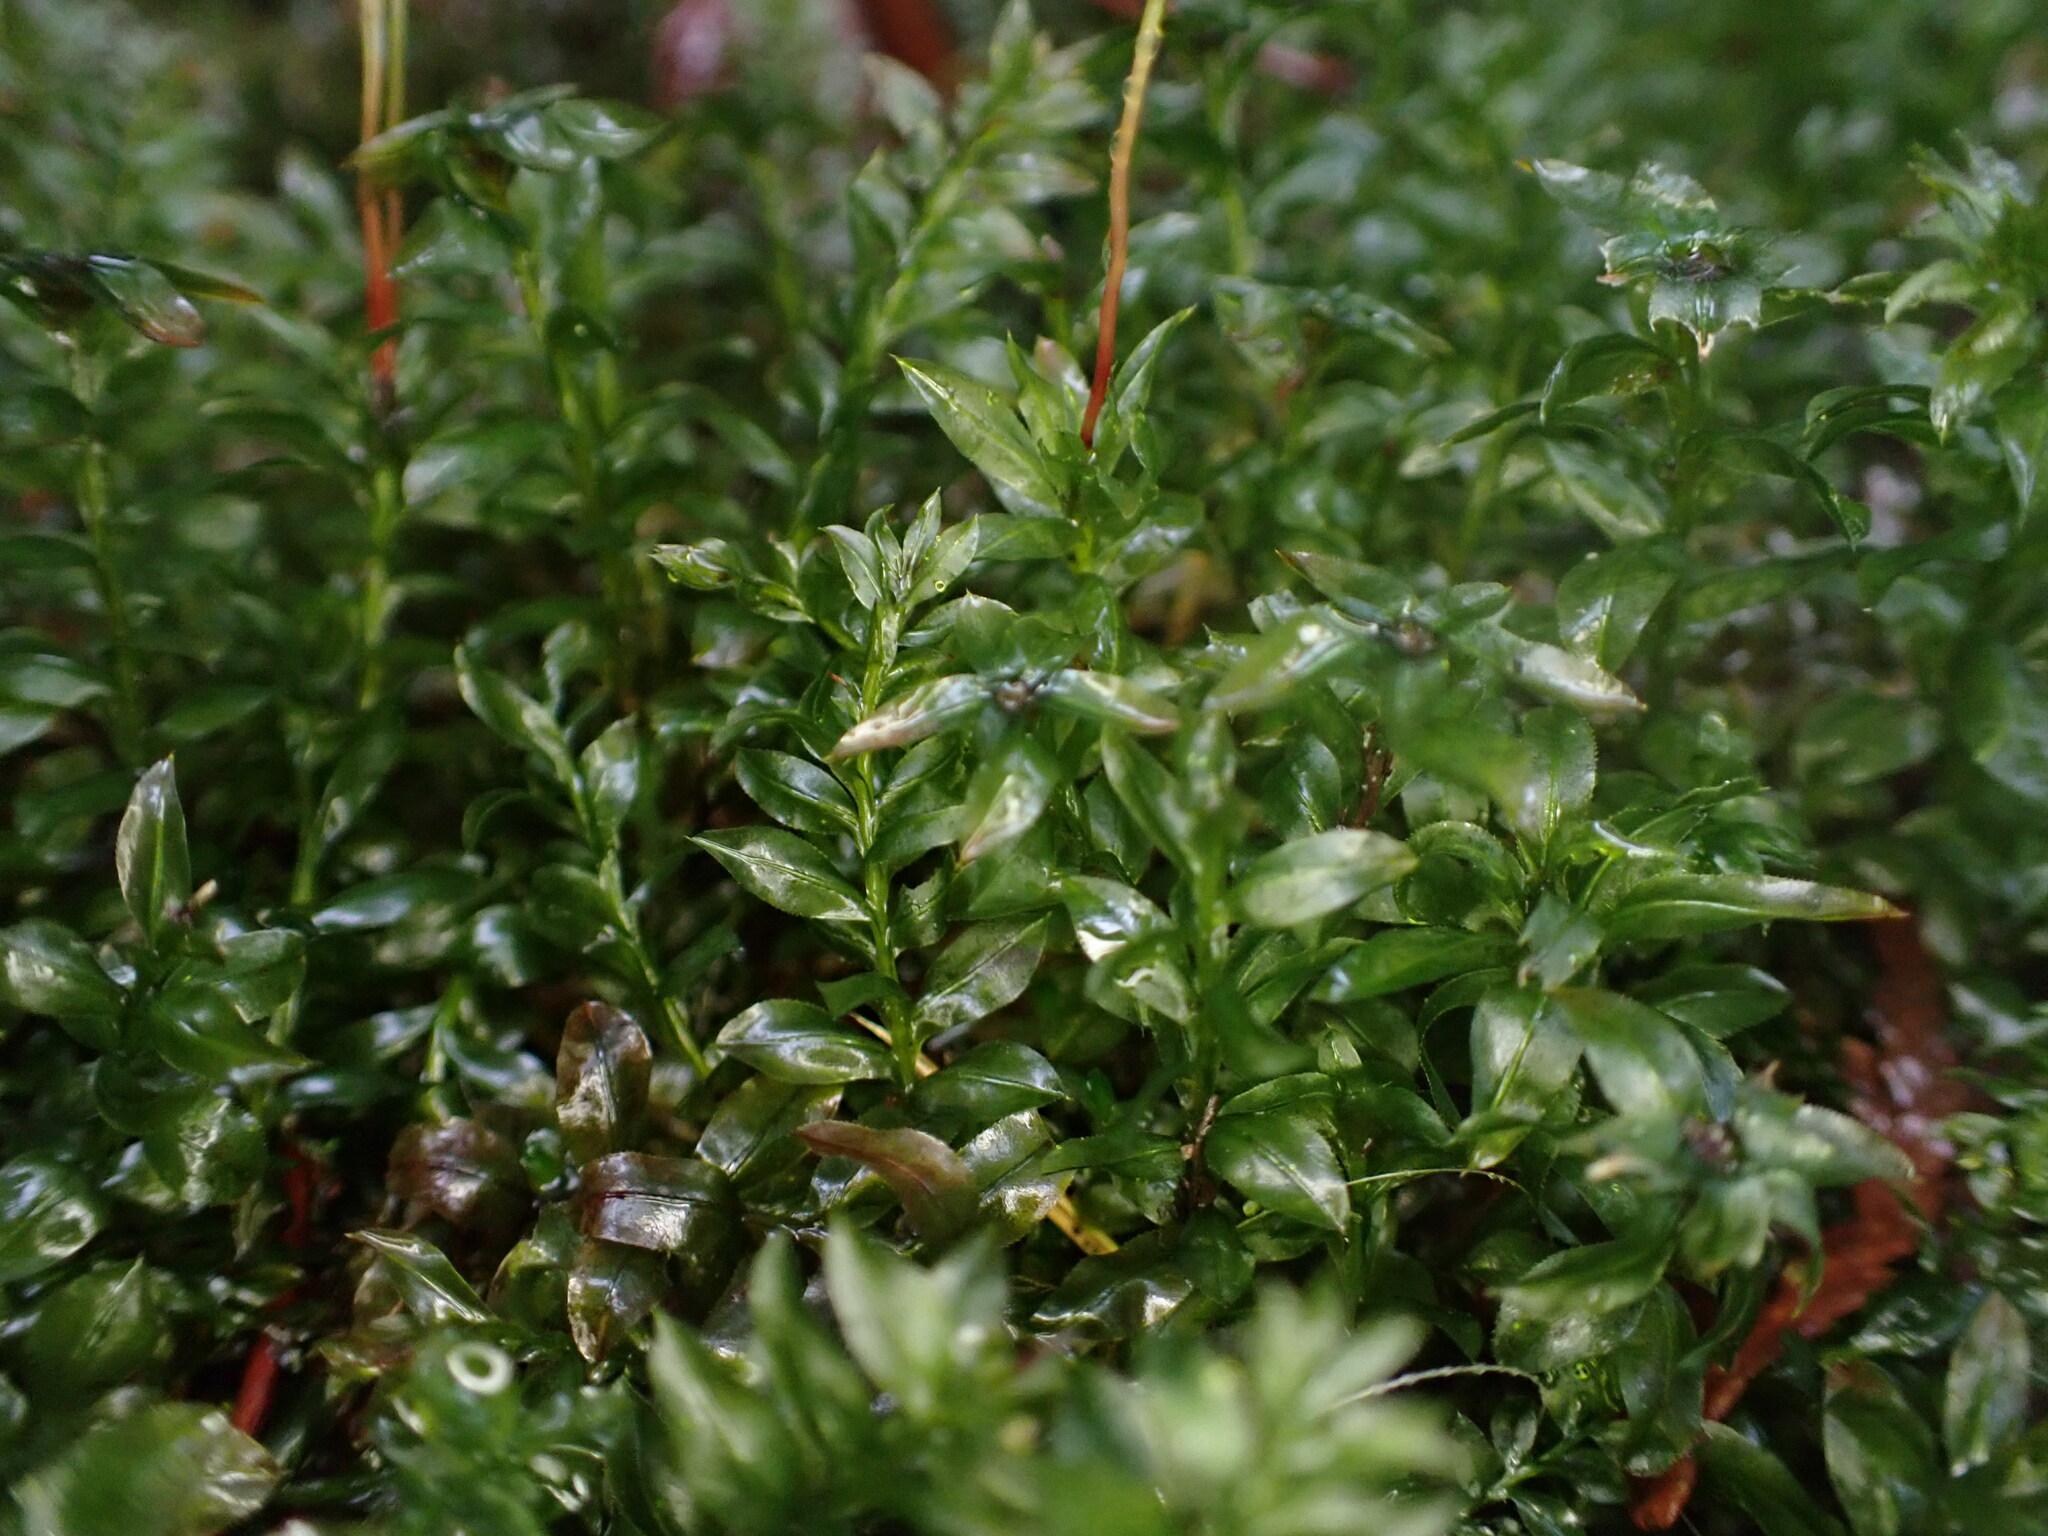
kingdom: Plantae
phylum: Bryophyta
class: Bryopsida
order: Bryales
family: Mniaceae
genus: Plagiomnium
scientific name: Plagiomnium insigne
